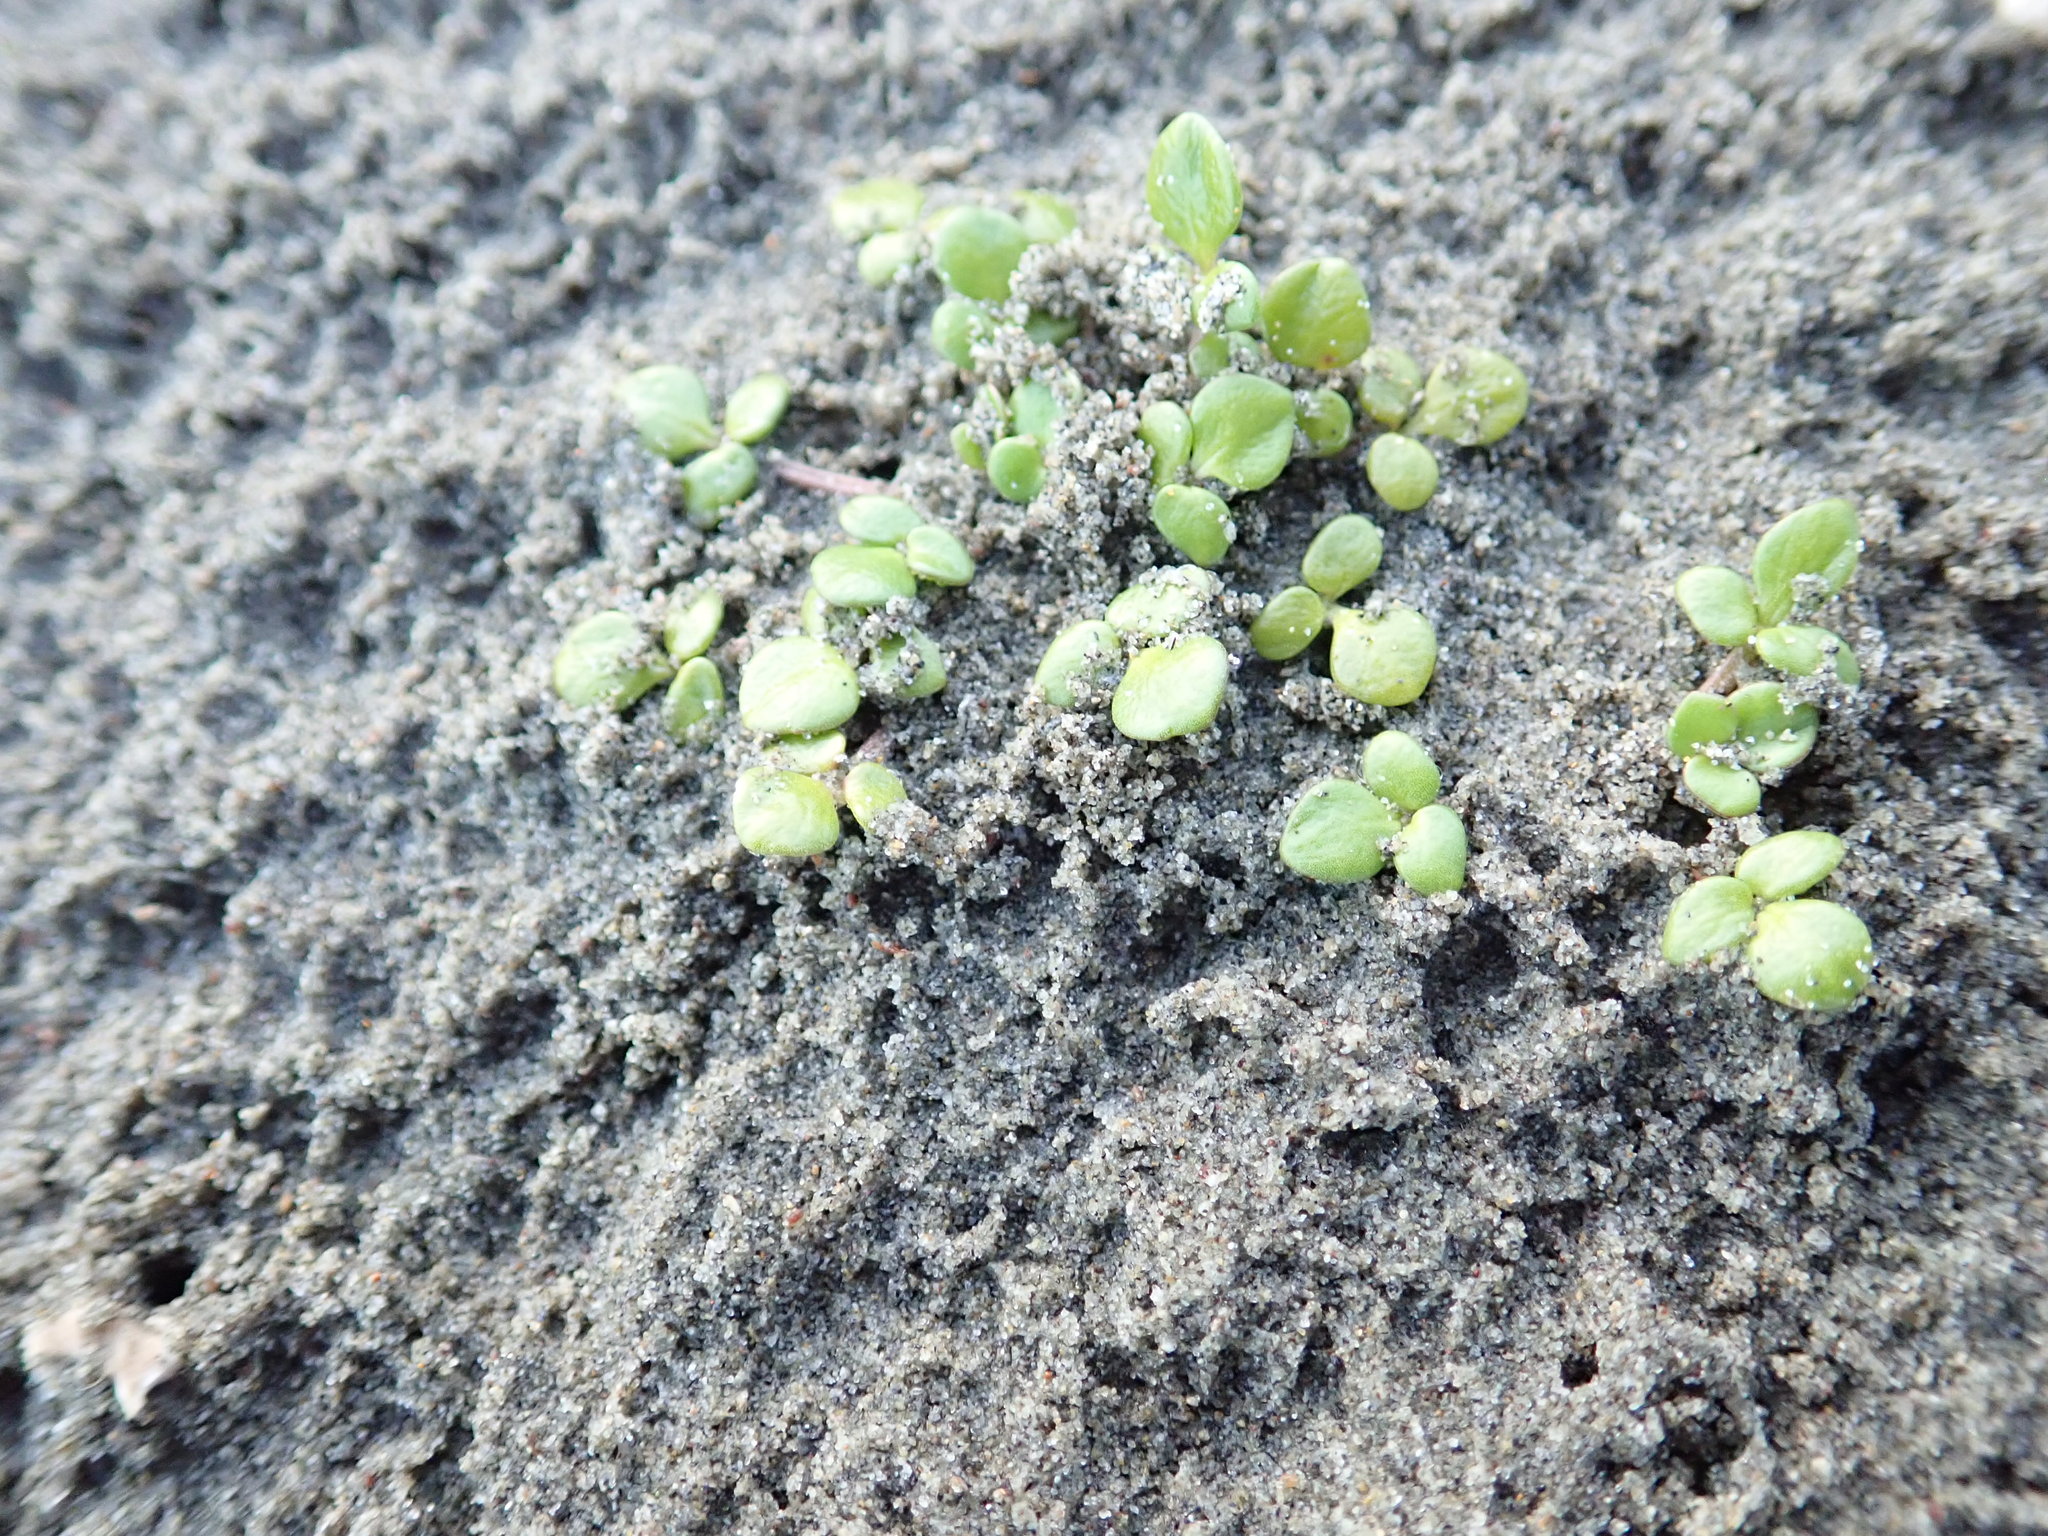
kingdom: Plantae
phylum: Tracheophyta
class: Magnoliopsida
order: Ranunculales
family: Ranunculaceae
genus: Ranunculus
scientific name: Ranunculus acaulis
